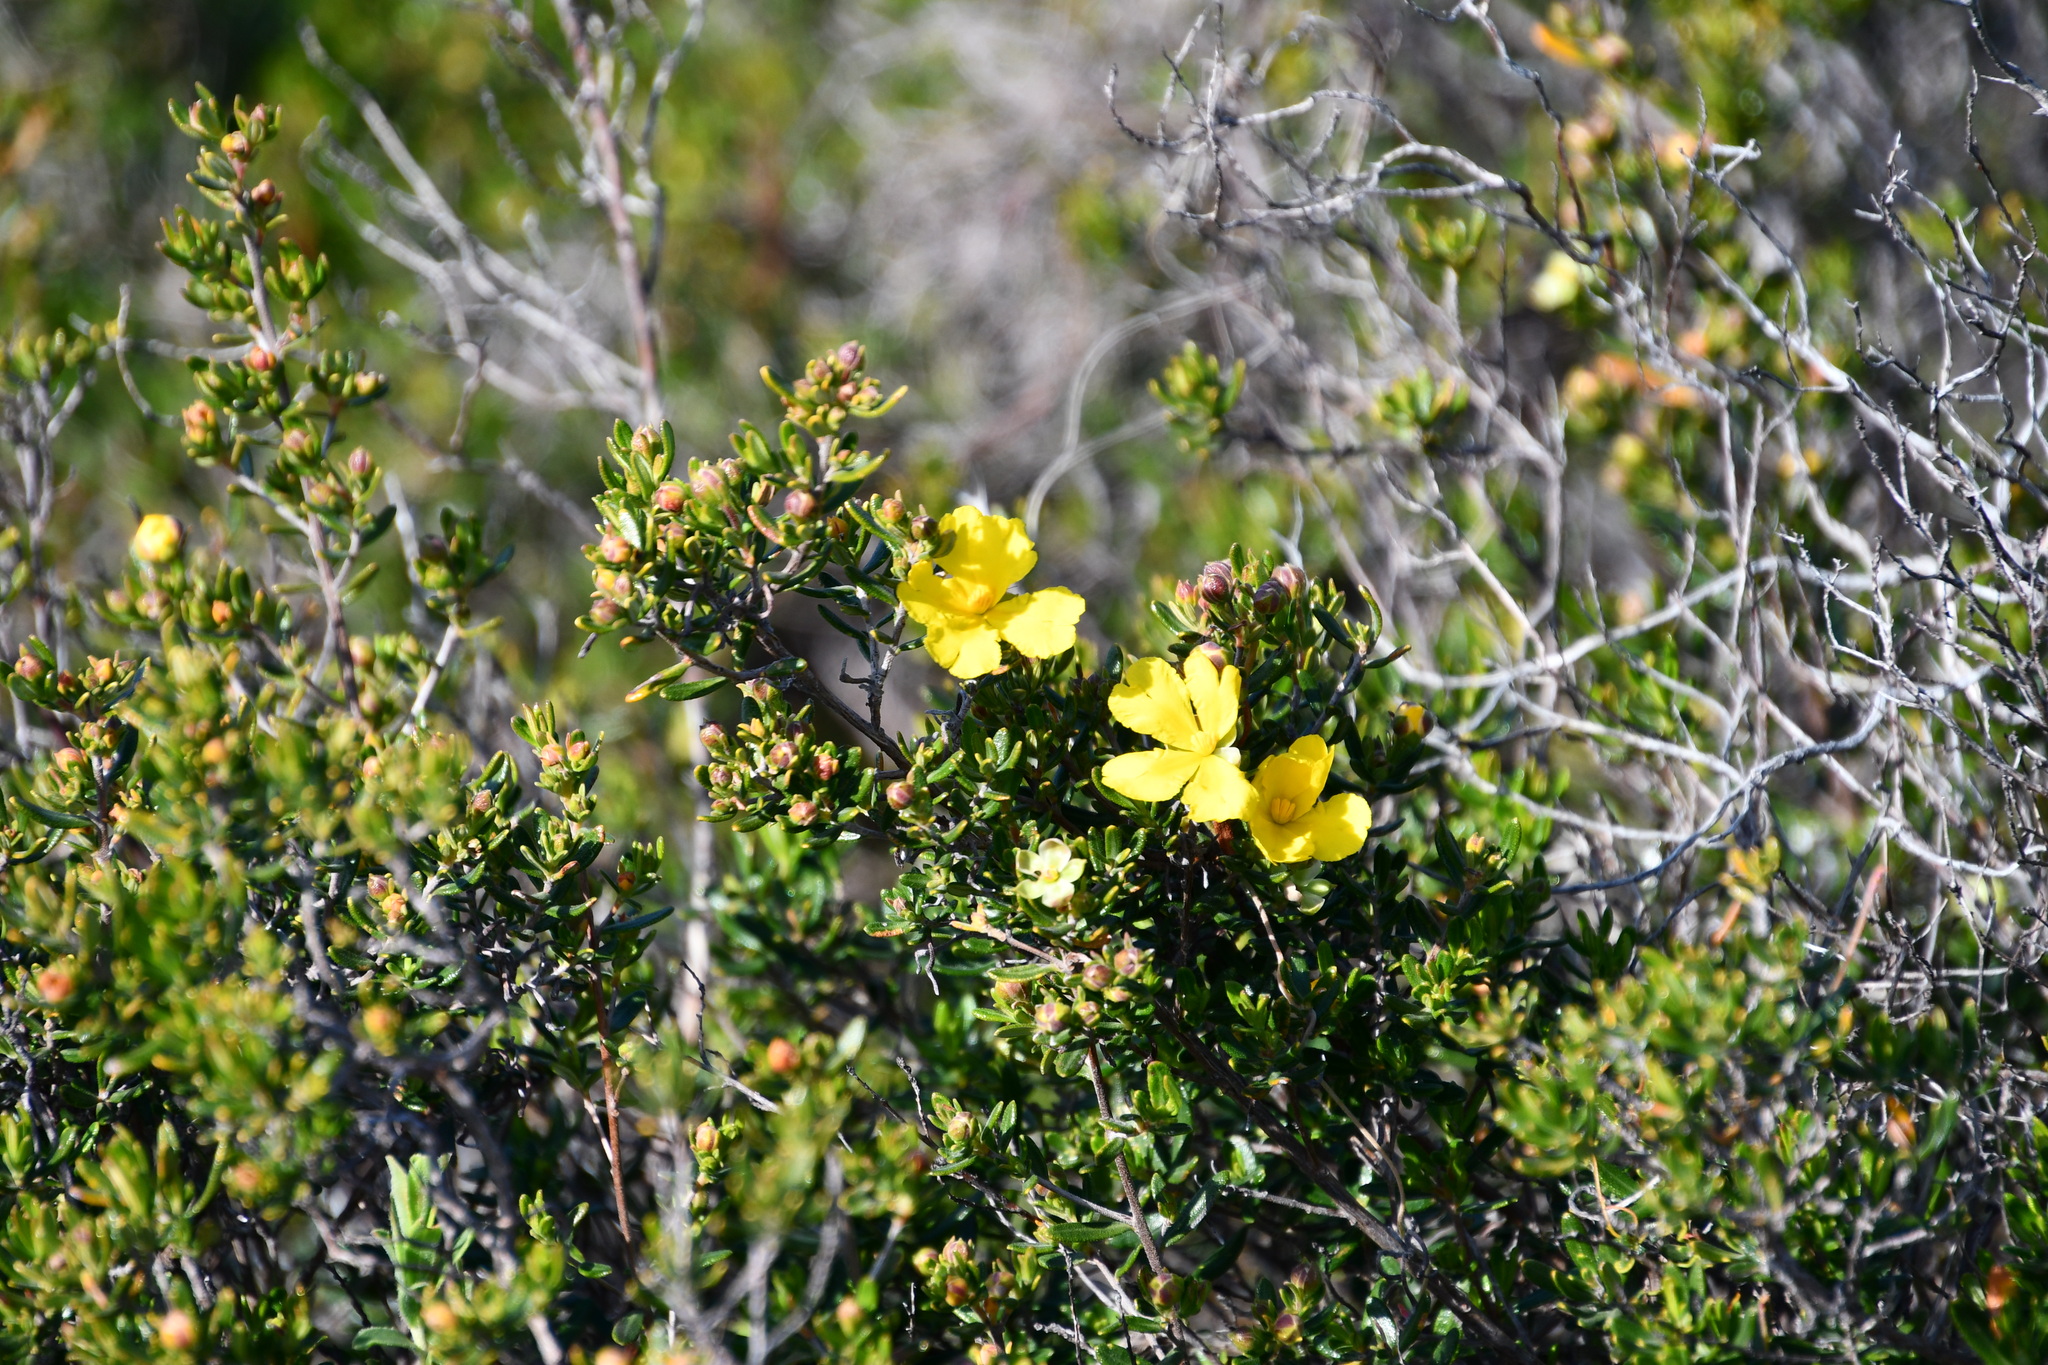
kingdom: Plantae
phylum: Tracheophyta
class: Magnoliopsida
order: Dilleniales
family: Dilleniaceae
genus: Hibbertia
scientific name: Hibbertia hypericoides
